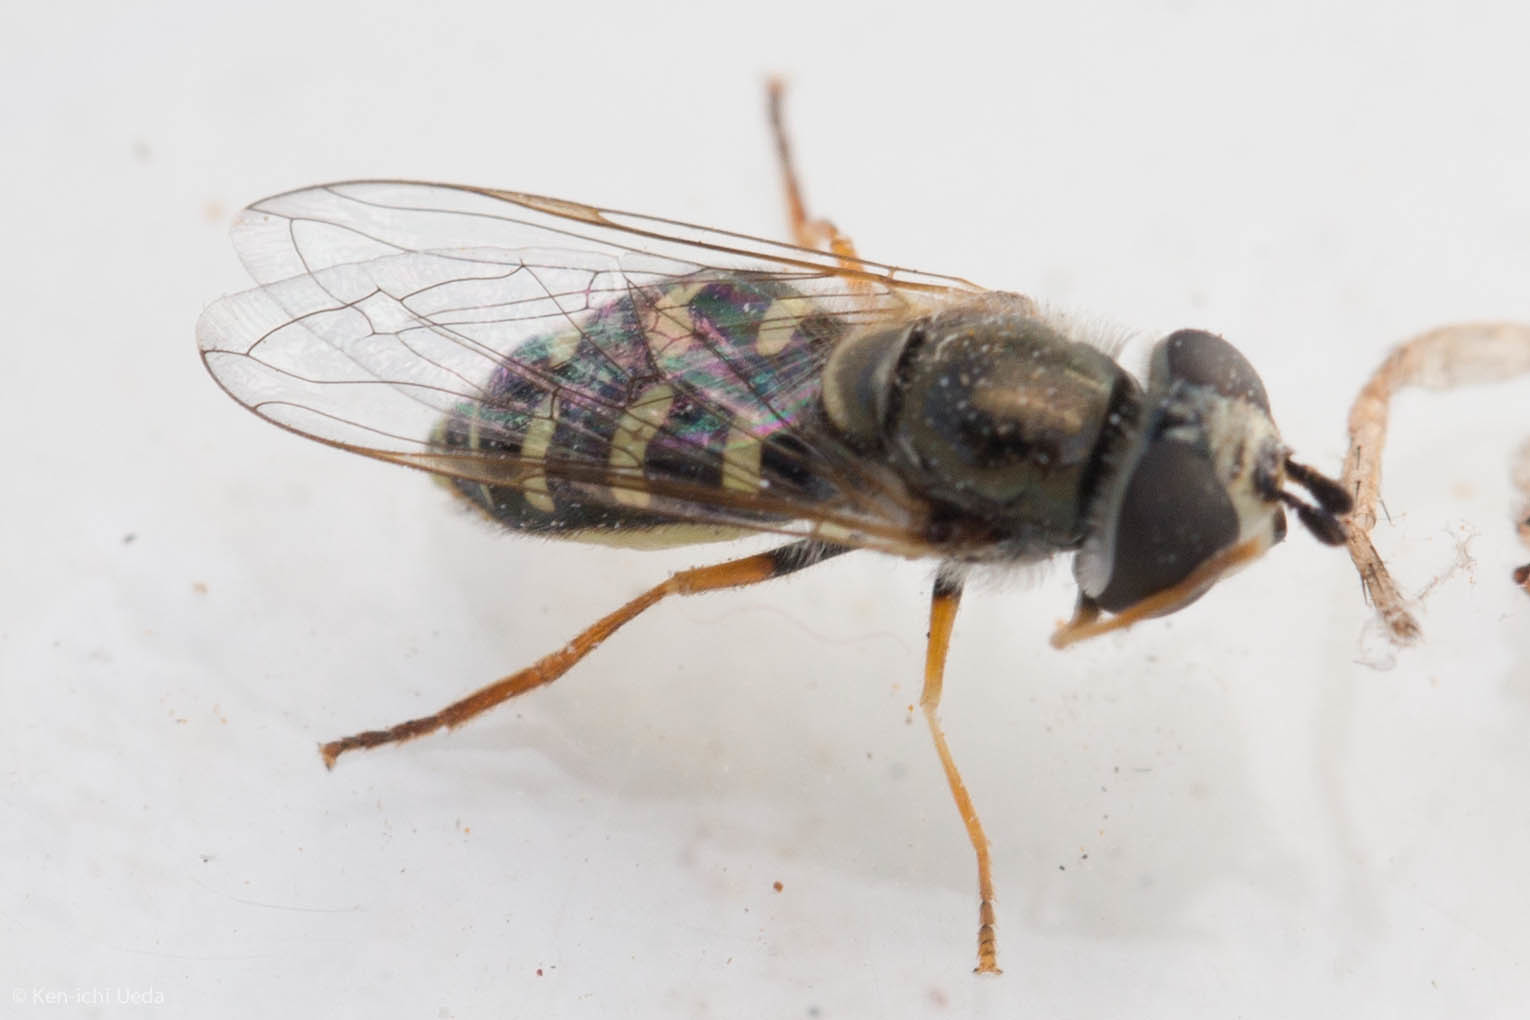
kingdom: Animalia
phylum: Arthropoda
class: Insecta
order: Diptera
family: Syrphidae
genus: Eupeodes
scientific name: Eupeodes volucris
